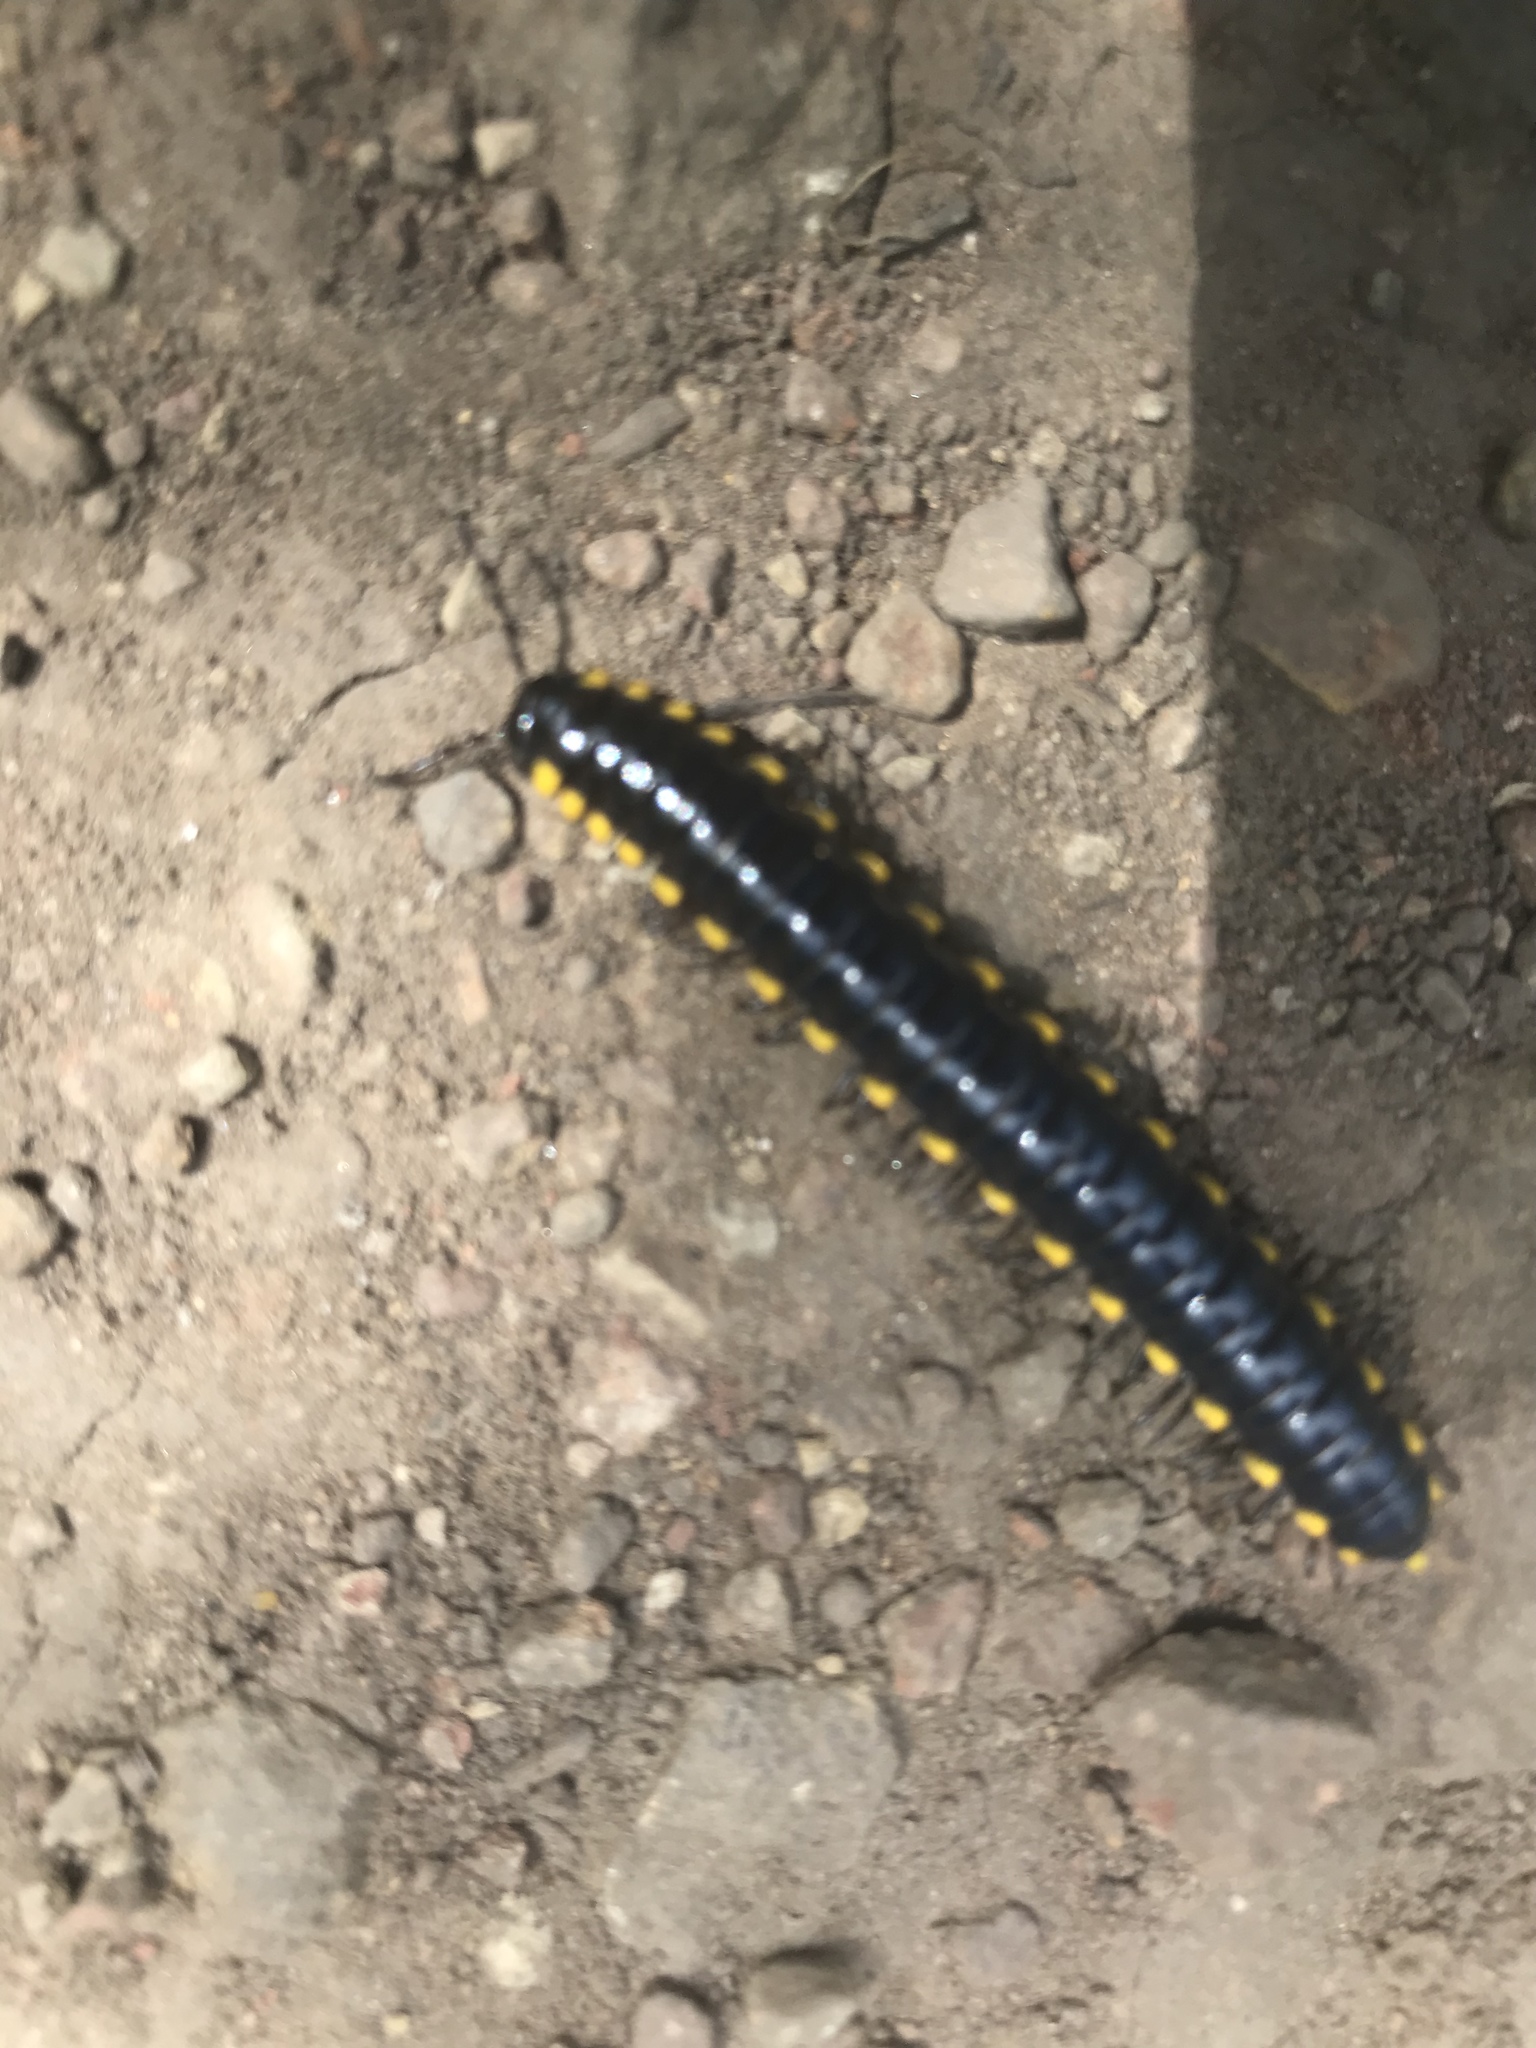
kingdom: Animalia
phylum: Arthropoda
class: Diplopoda
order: Polydesmida
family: Xystodesmidae
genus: Harpaphe
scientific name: Harpaphe haydeniana
